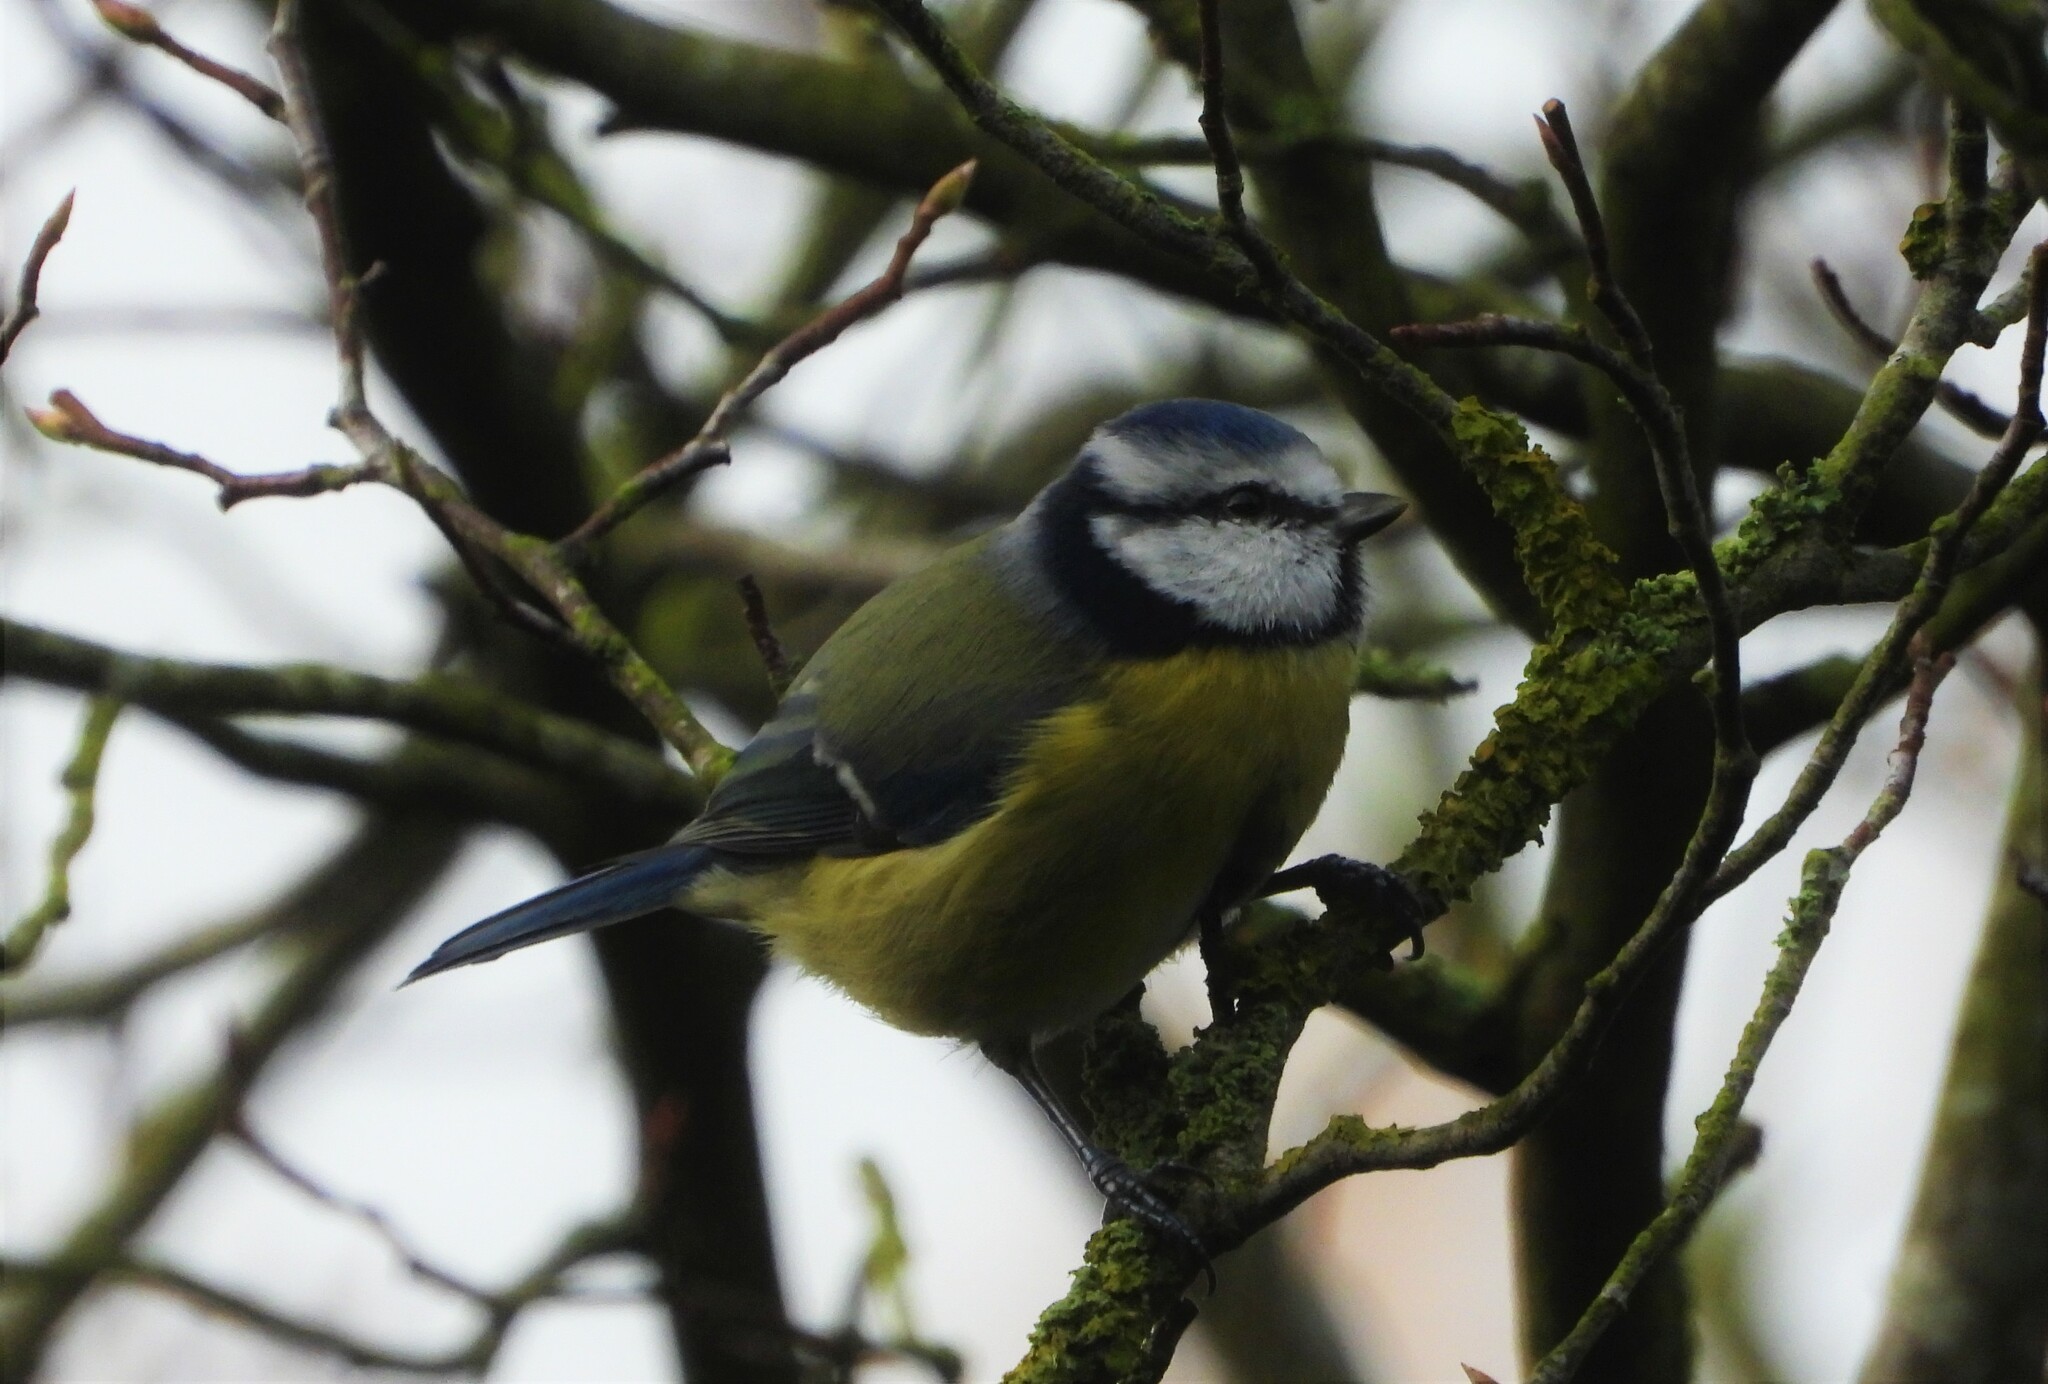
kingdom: Animalia
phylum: Chordata
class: Aves
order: Passeriformes
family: Paridae
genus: Cyanistes
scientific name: Cyanistes caeruleus
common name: Eurasian blue tit
